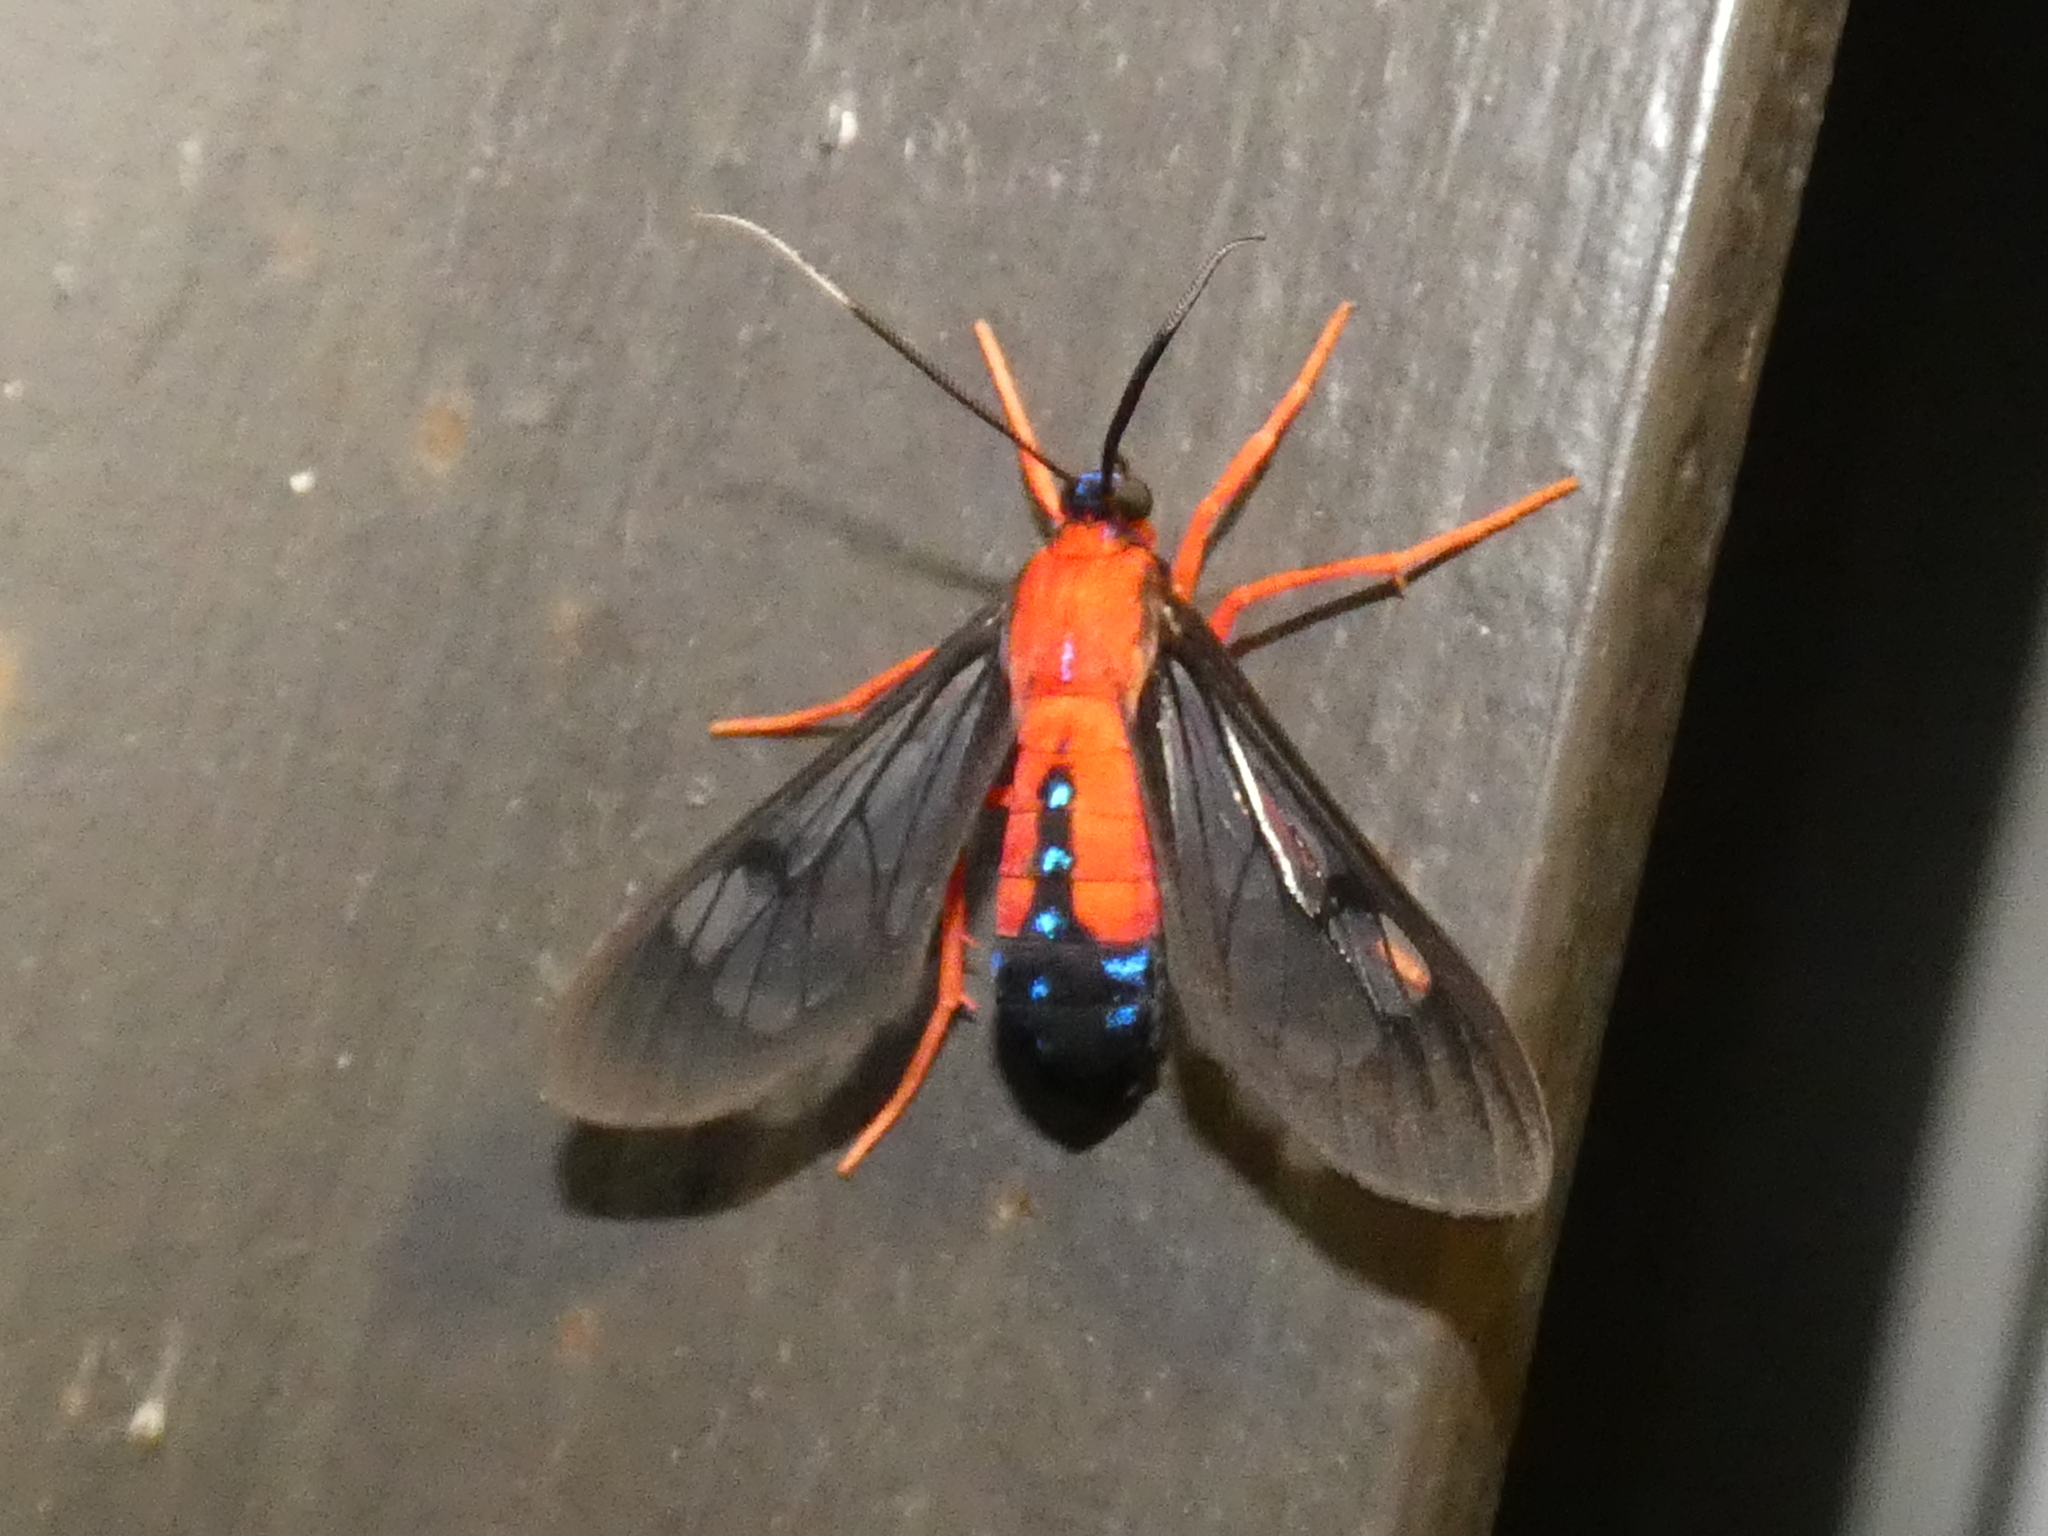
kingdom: Animalia
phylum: Arthropoda
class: Insecta
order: Lepidoptera
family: Erebidae
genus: Cosmosoma
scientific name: Cosmosoma myrodora
